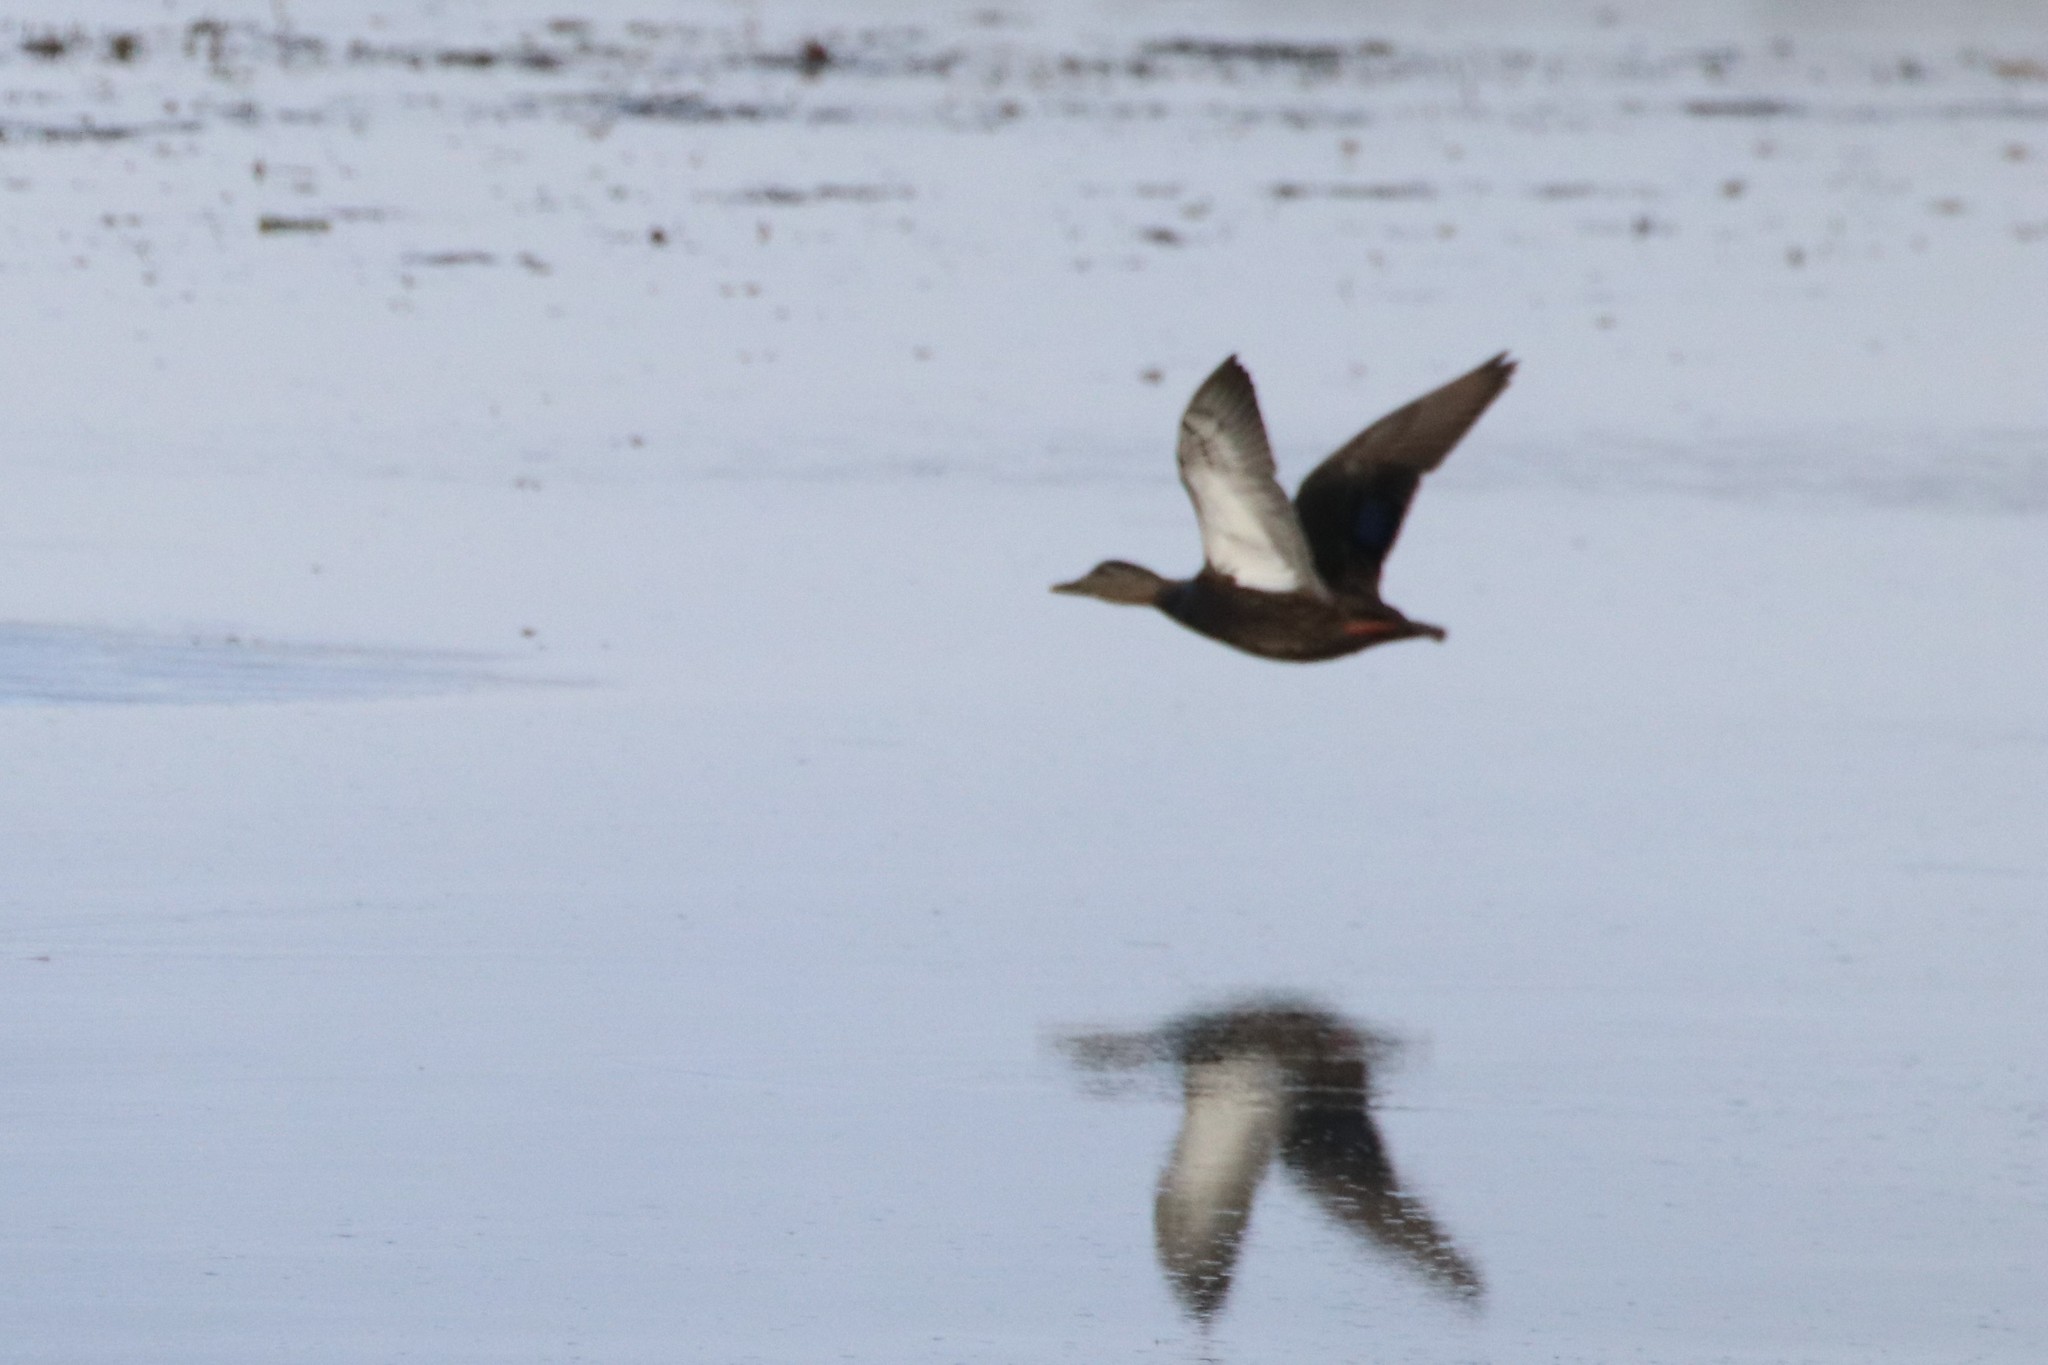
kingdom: Animalia
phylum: Chordata
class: Aves
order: Anseriformes
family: Anatidae
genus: Anas
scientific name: Anas rubripes
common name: American black duck
